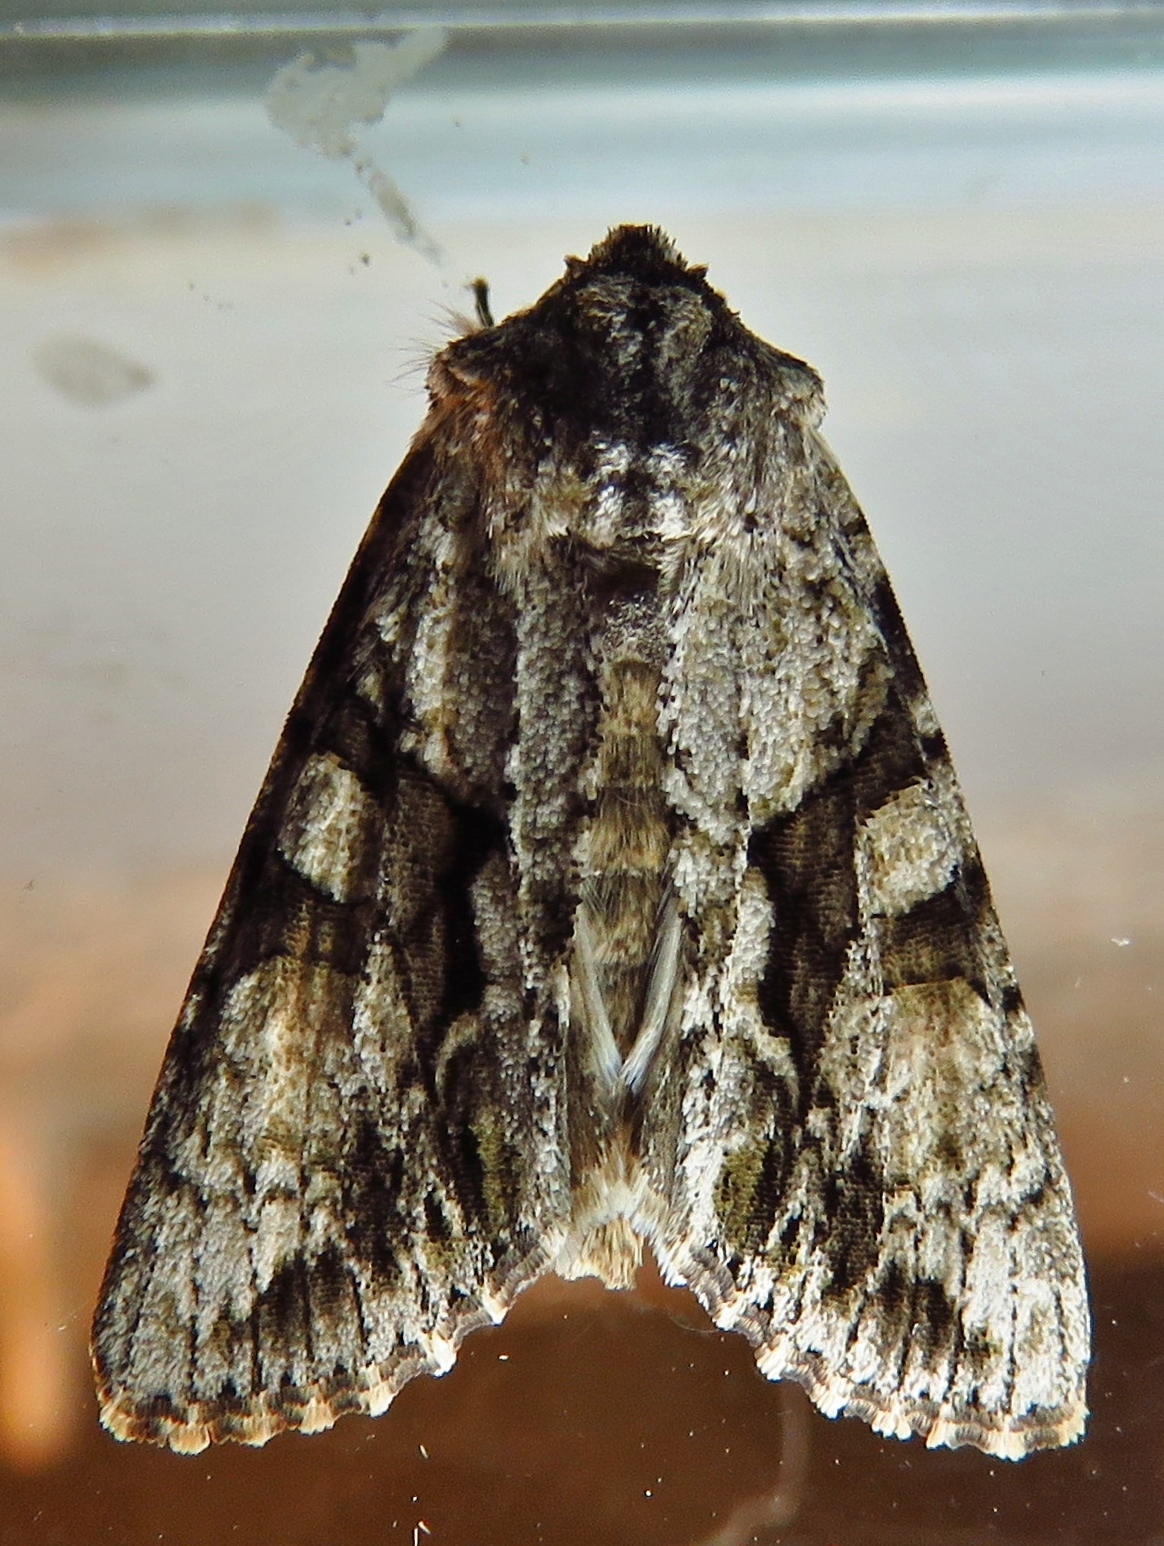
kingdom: Animalia
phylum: Arthropoda
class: Insecta
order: Lepidoptera
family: Noctuidae
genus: Achatia
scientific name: Achatia distincta
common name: Distinct quaker
